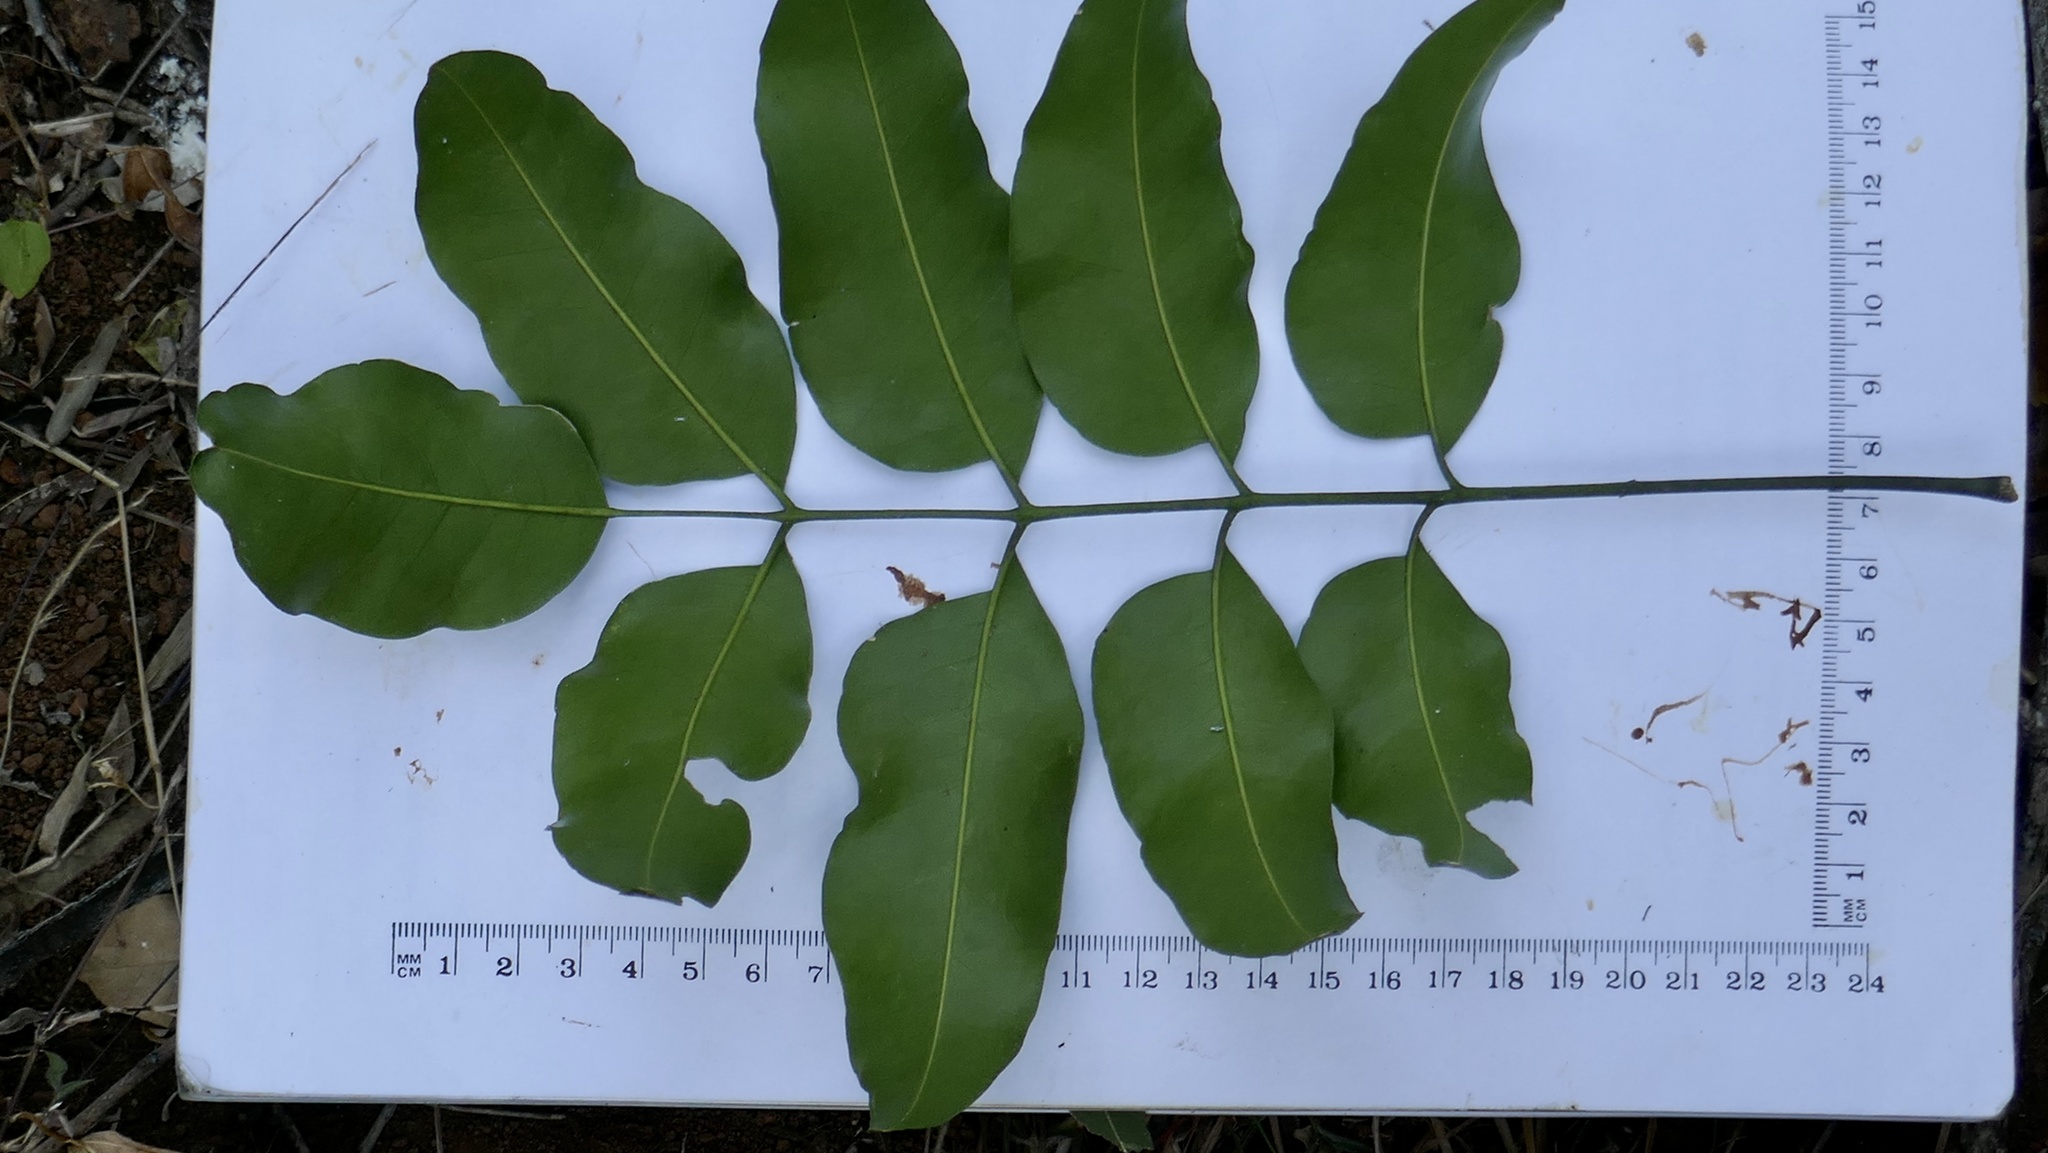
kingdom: Plantae
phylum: Tracheophyta
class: Magnoliopsida
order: Sapindales
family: Rutaceae
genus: Pentaceras
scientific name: Pentaceras australe
